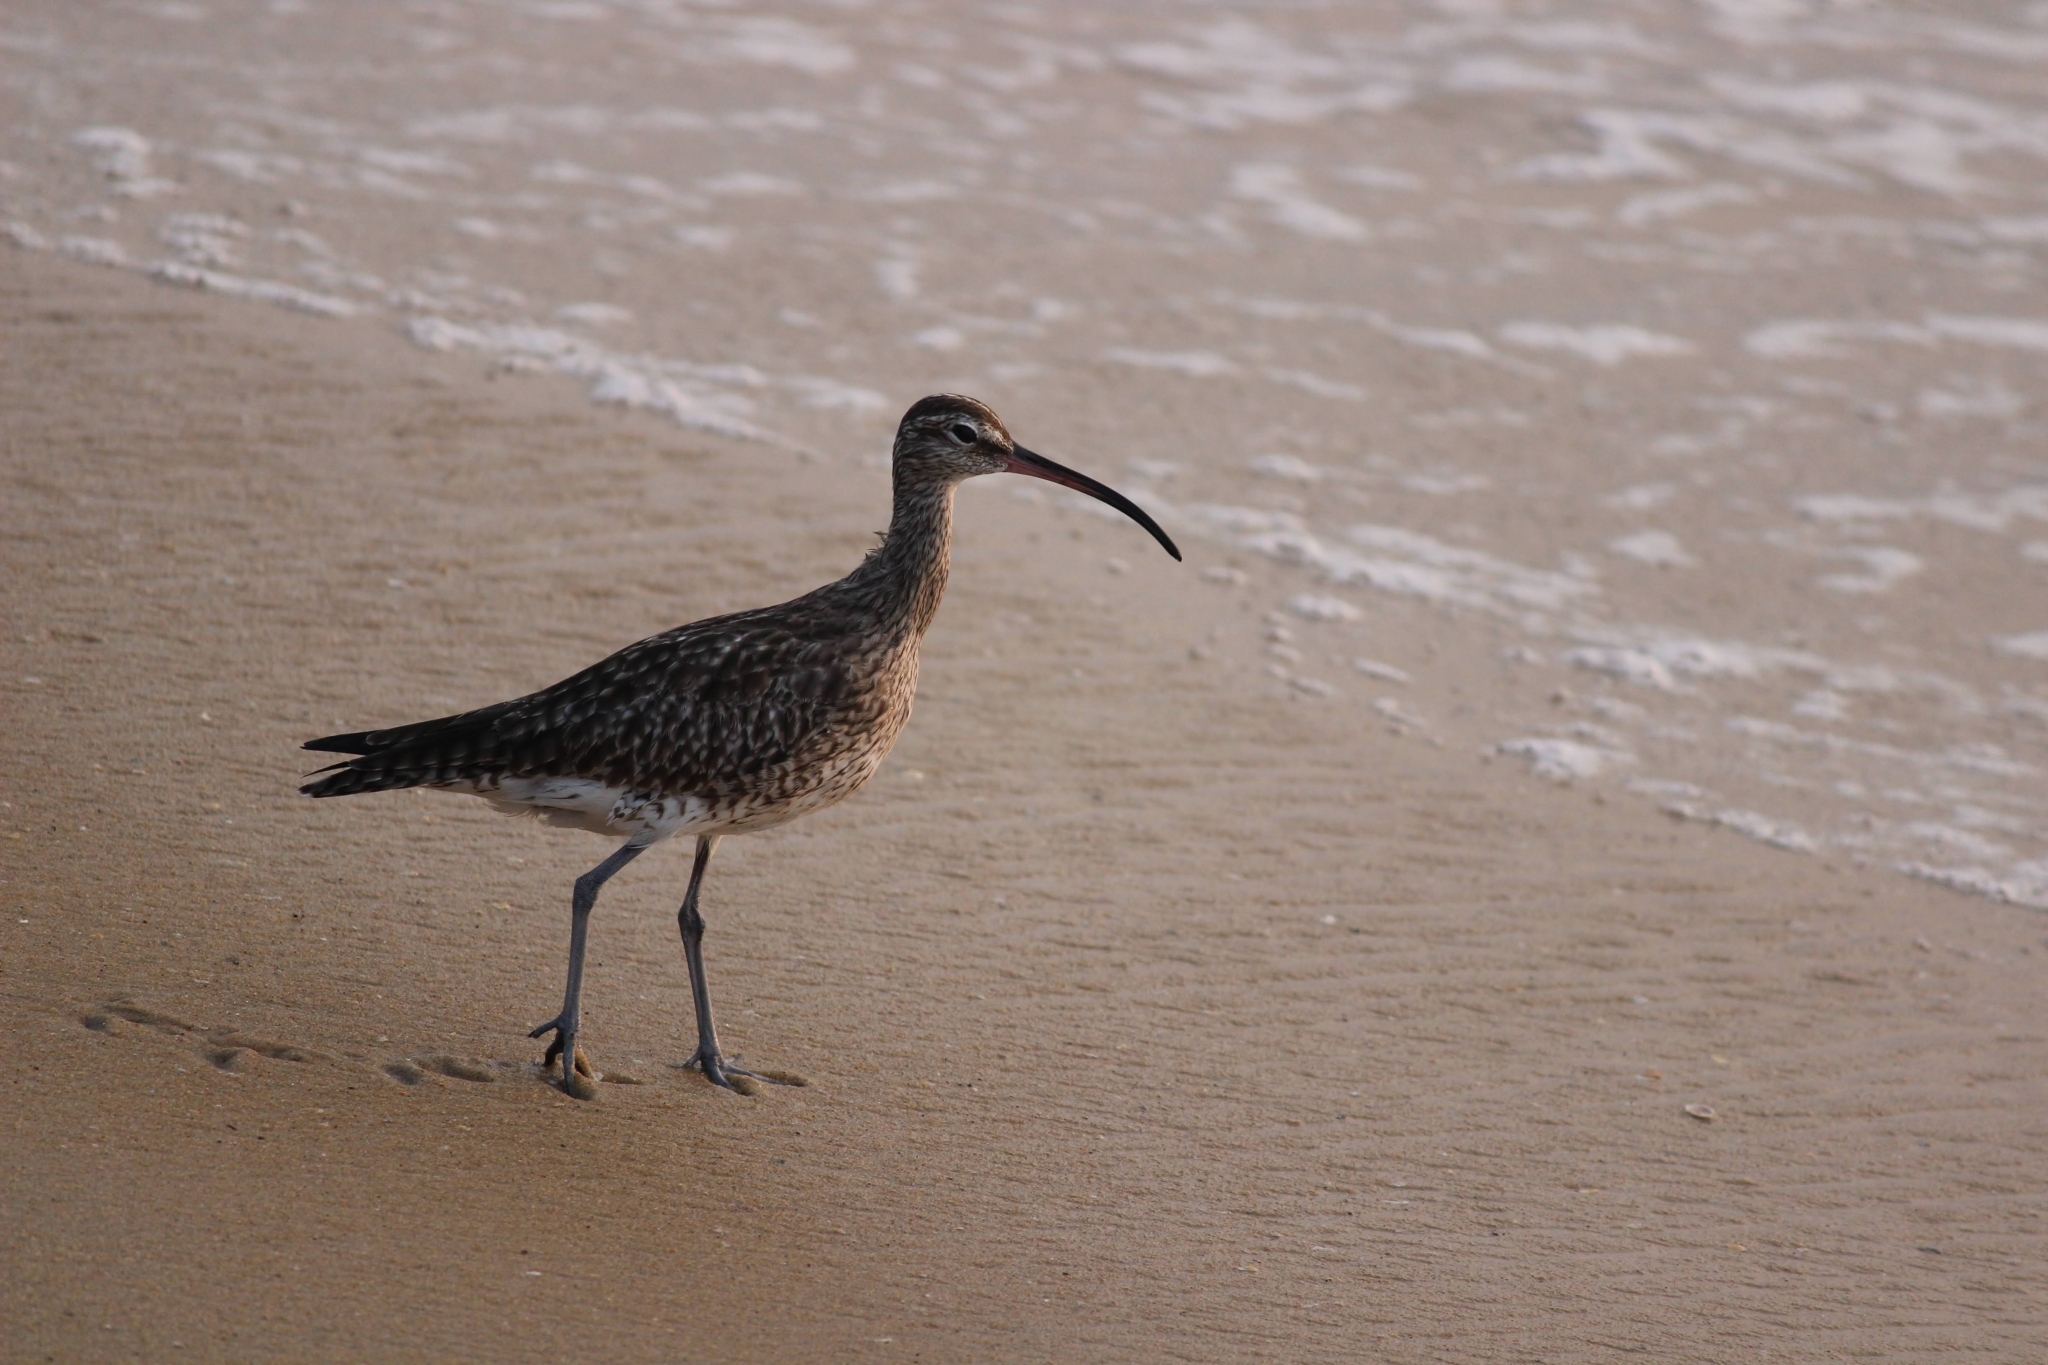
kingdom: Animalia
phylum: Chordata
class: Aves
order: Charadriiformes
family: Scolopacidae
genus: Numenius
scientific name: Numenius phaeopus
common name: Whimbrel
